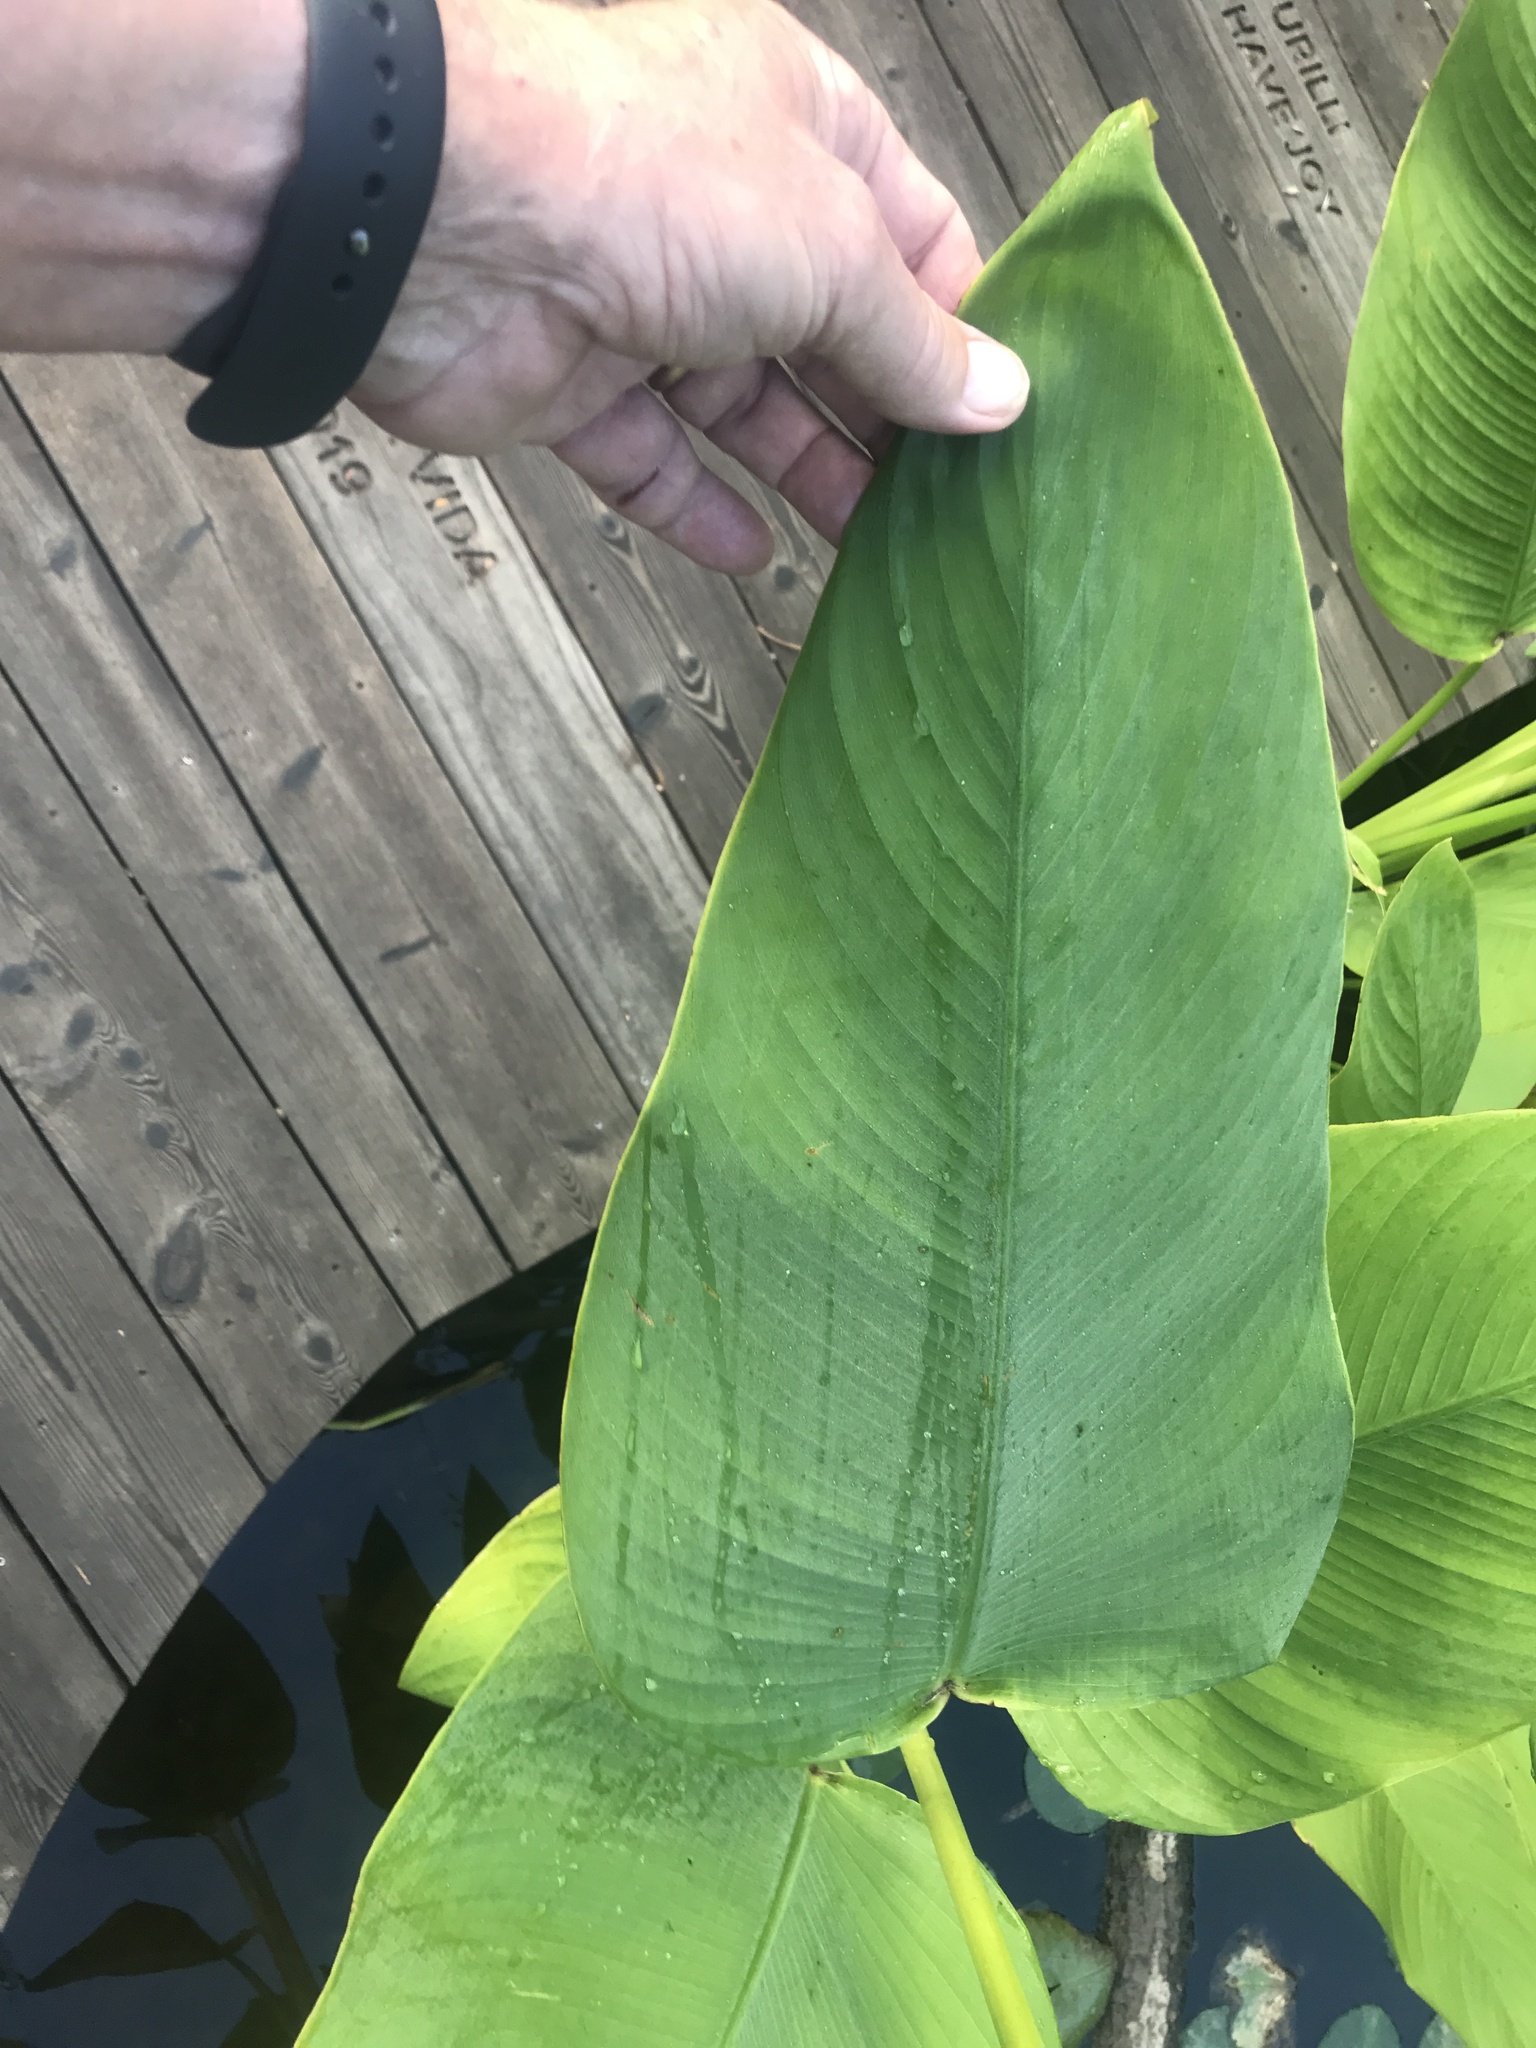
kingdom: Plantae
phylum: Tracheophyta
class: Liliopsida
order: Zingiberales
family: Marantaceae
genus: Thalia
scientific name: Thalia geniculata
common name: Arrowroot
